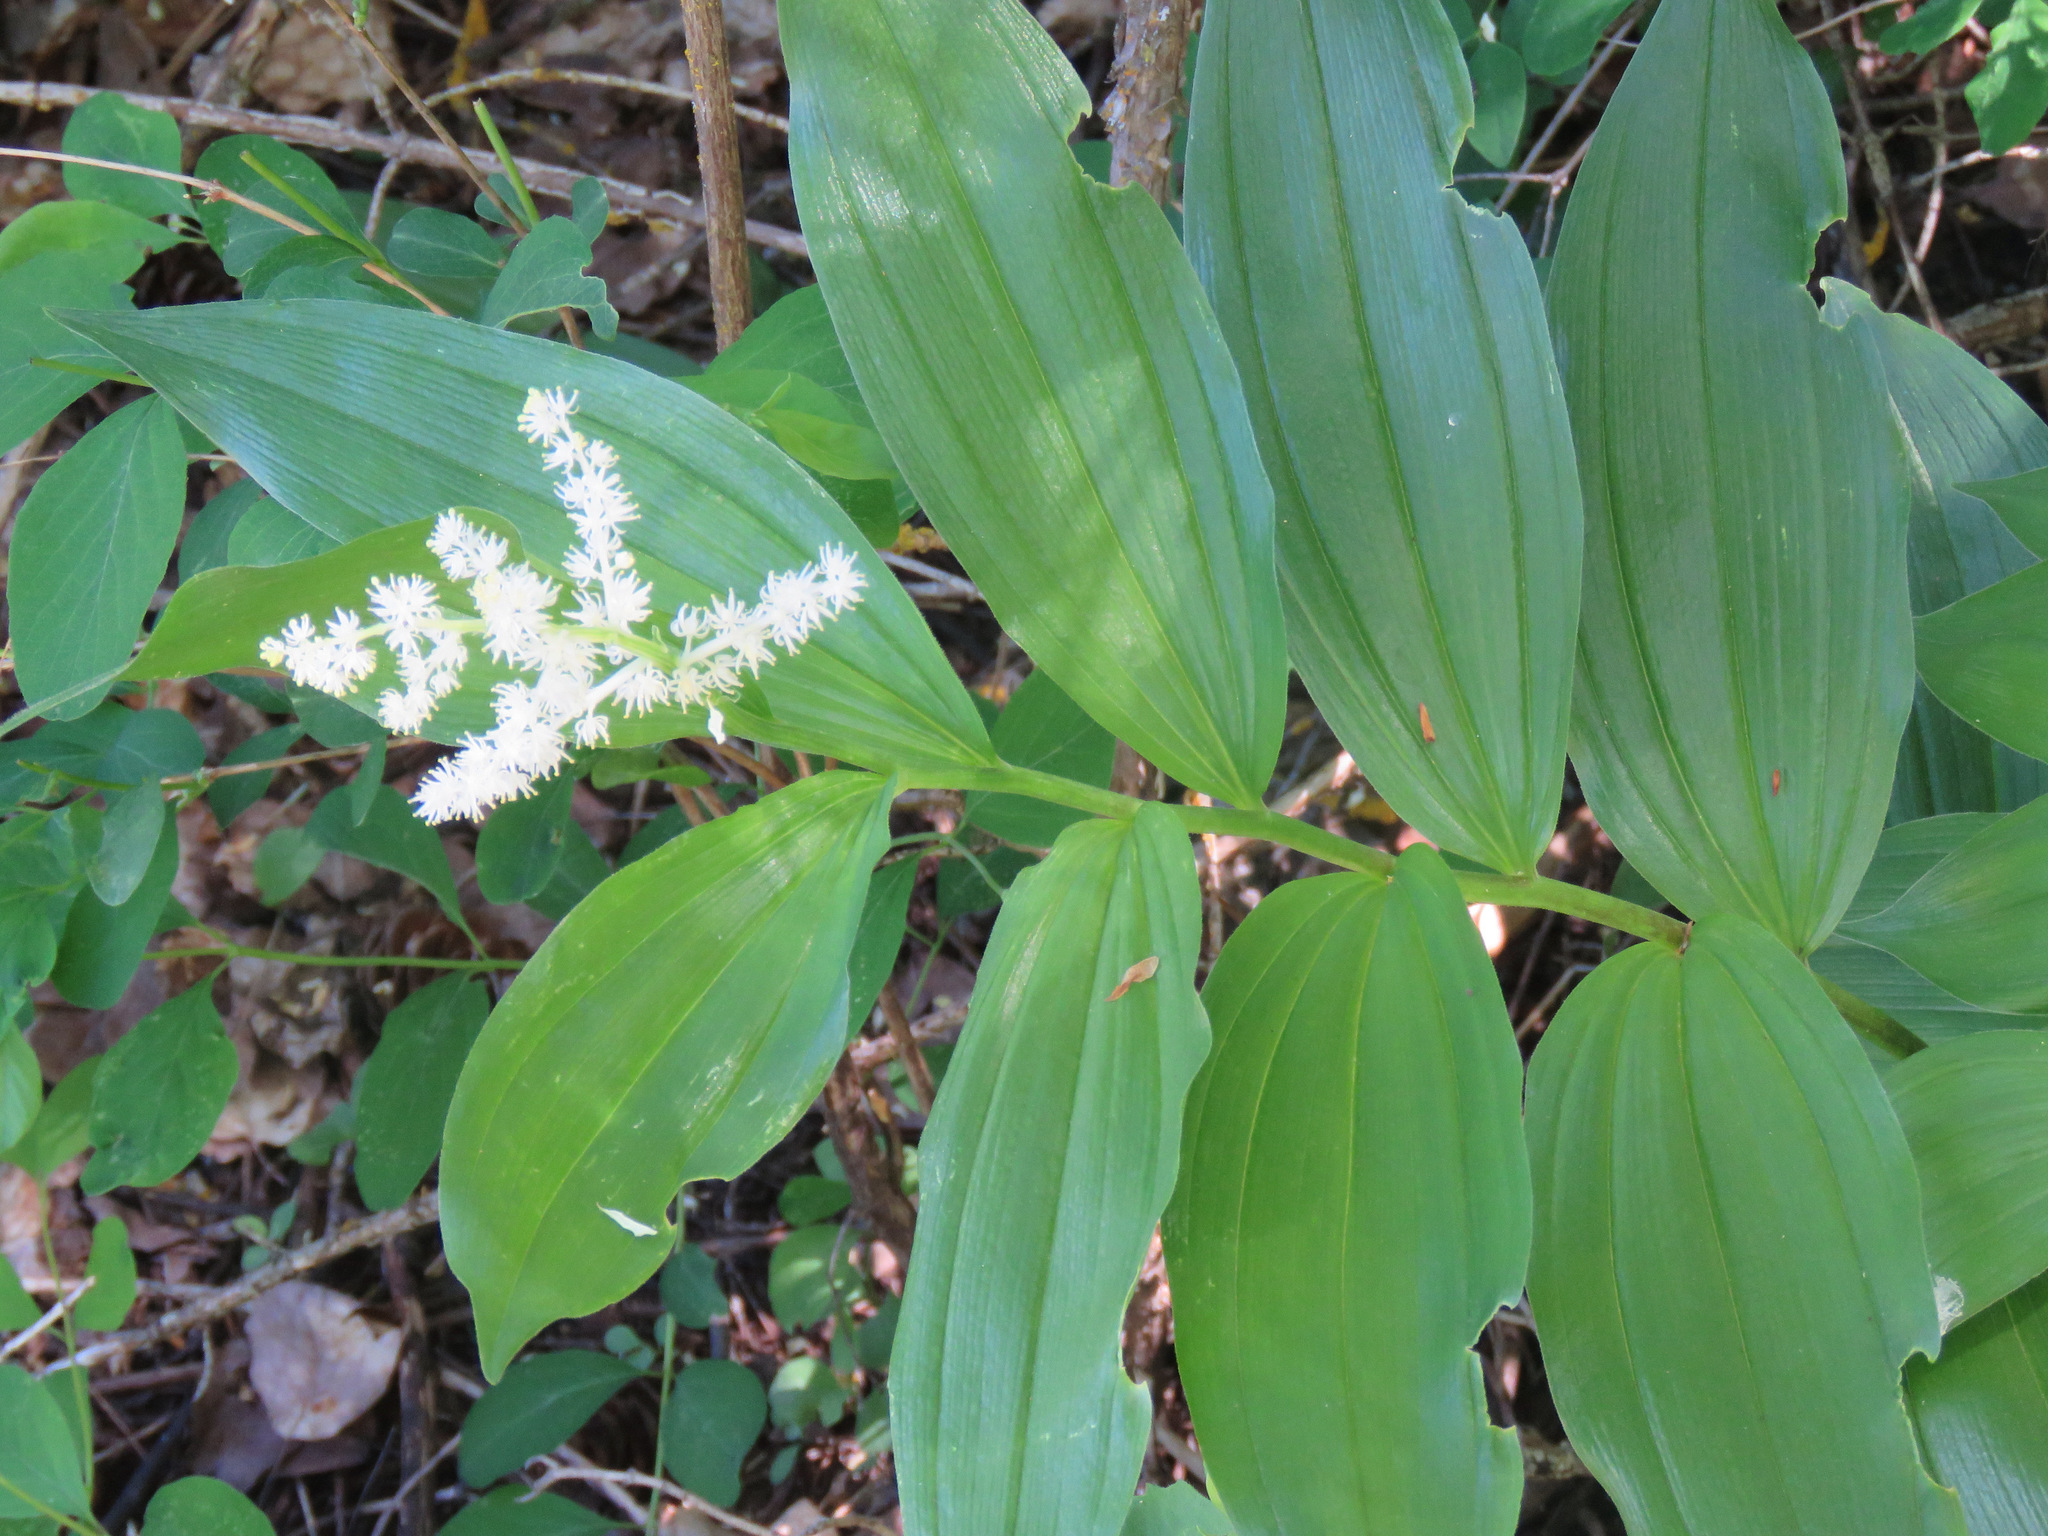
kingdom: Plantae
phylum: Tracheophyta
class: Liliopsida
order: Asparagales
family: Asparagaceae
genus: Maianthemum
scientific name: Maianthemum racemosum
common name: False spikenard
